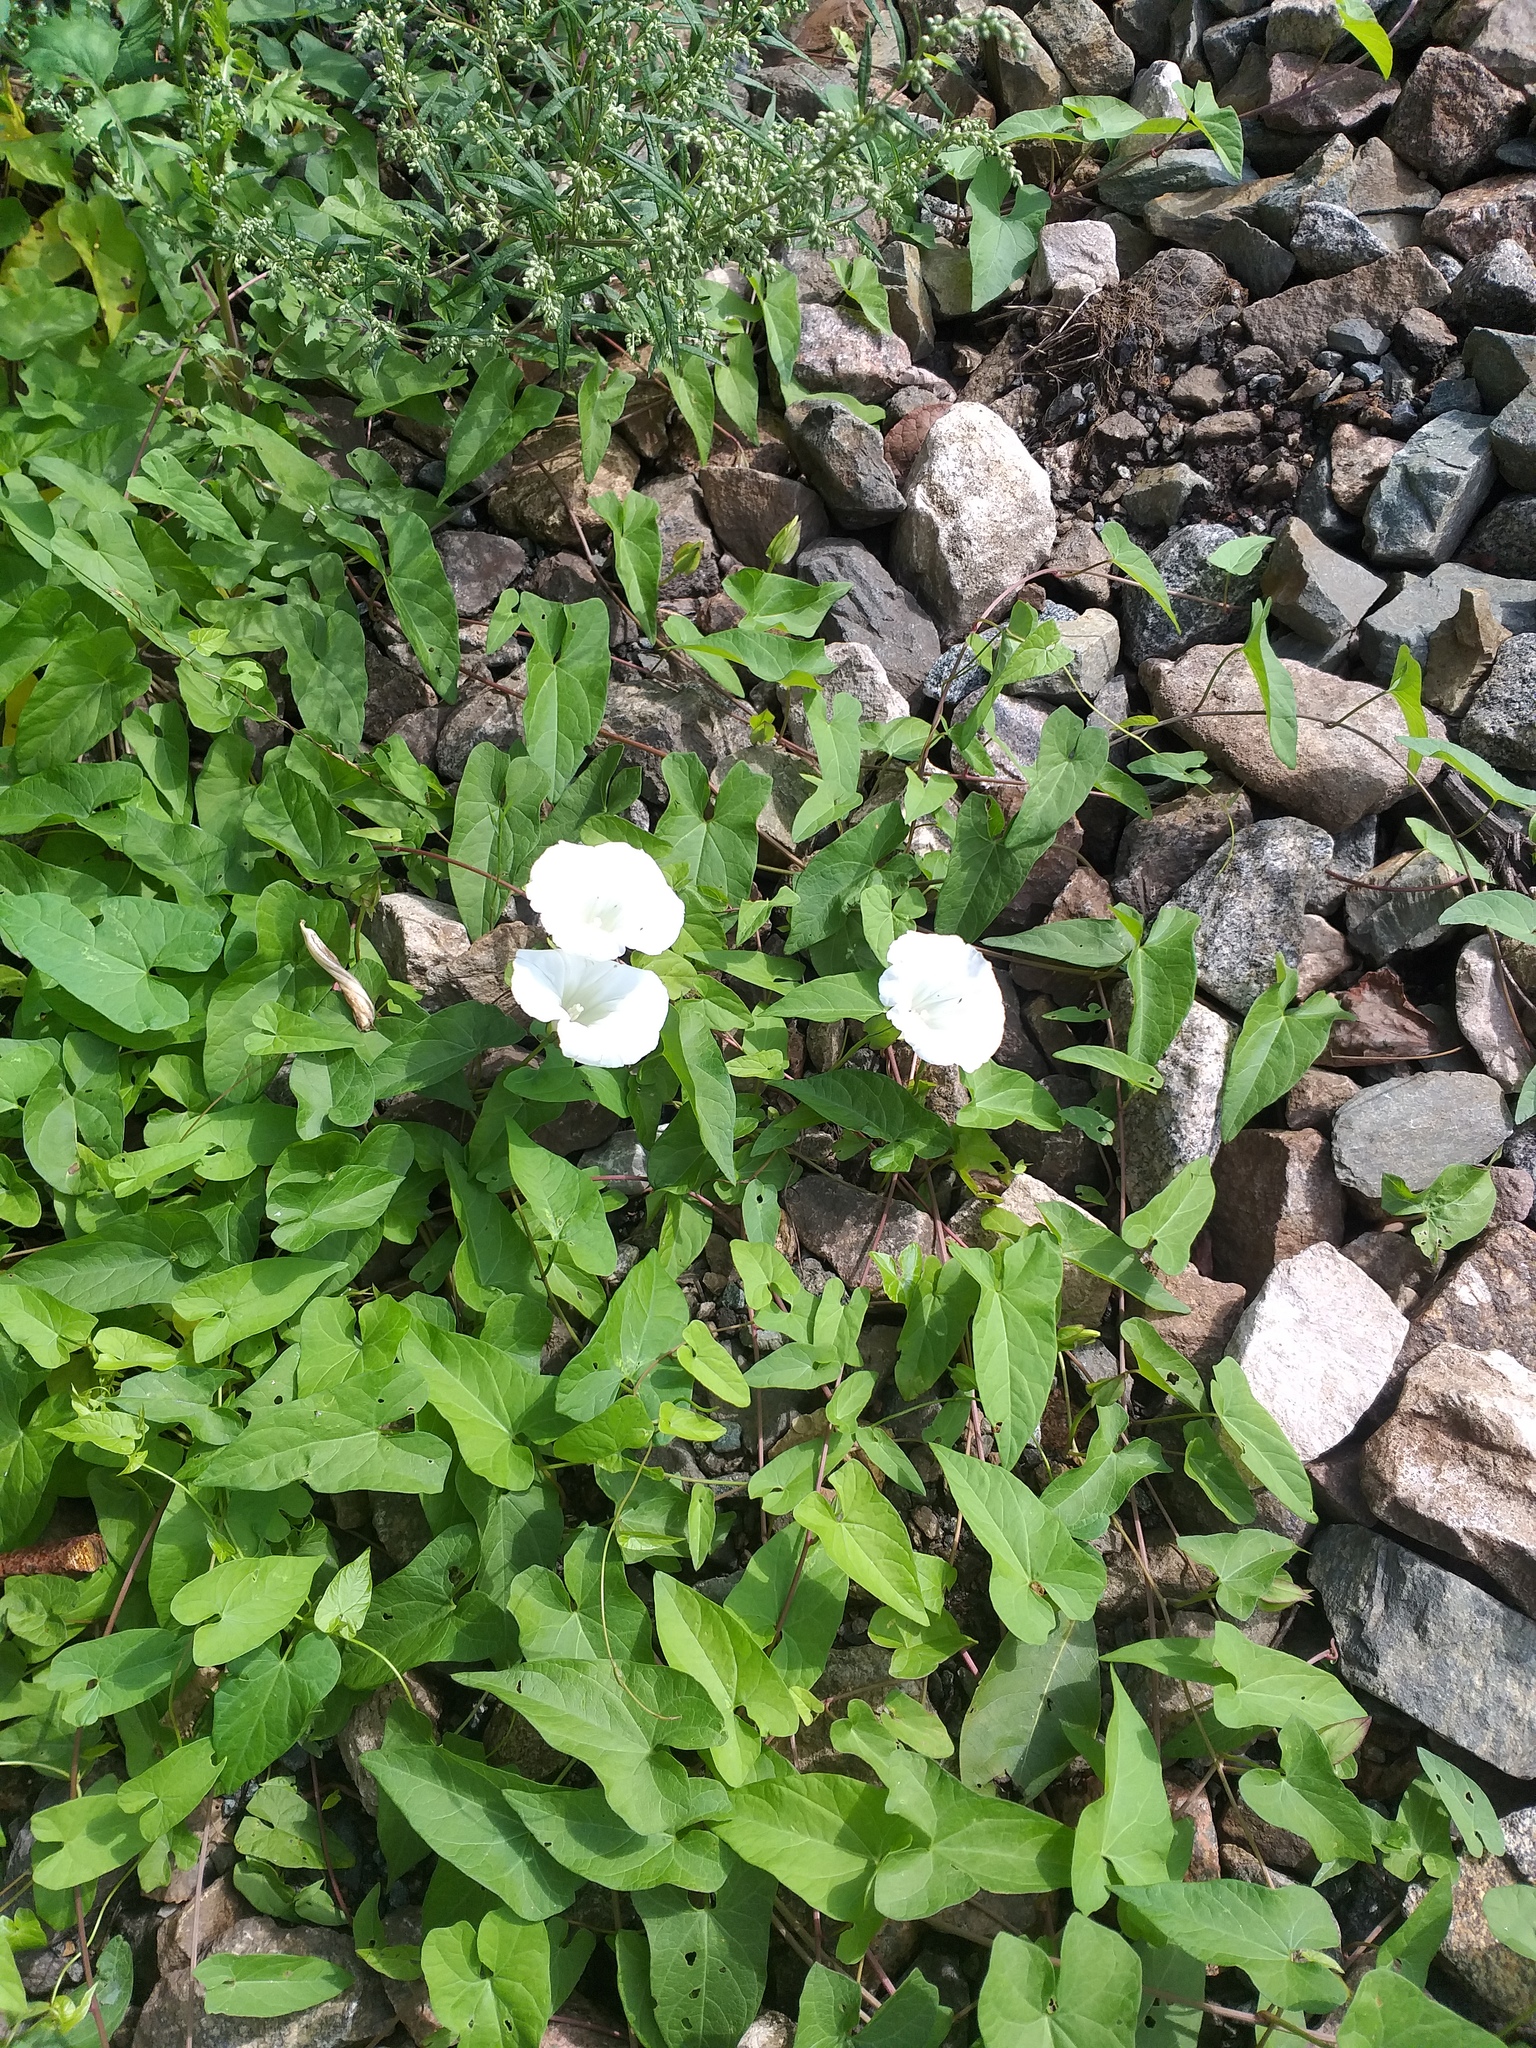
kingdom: Plantae
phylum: Tracheophyta
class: Magnoliopsida
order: Solanales
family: Convolvulaceae
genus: Calystegia
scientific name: Calystegia sepium
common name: Hedge bindweed
